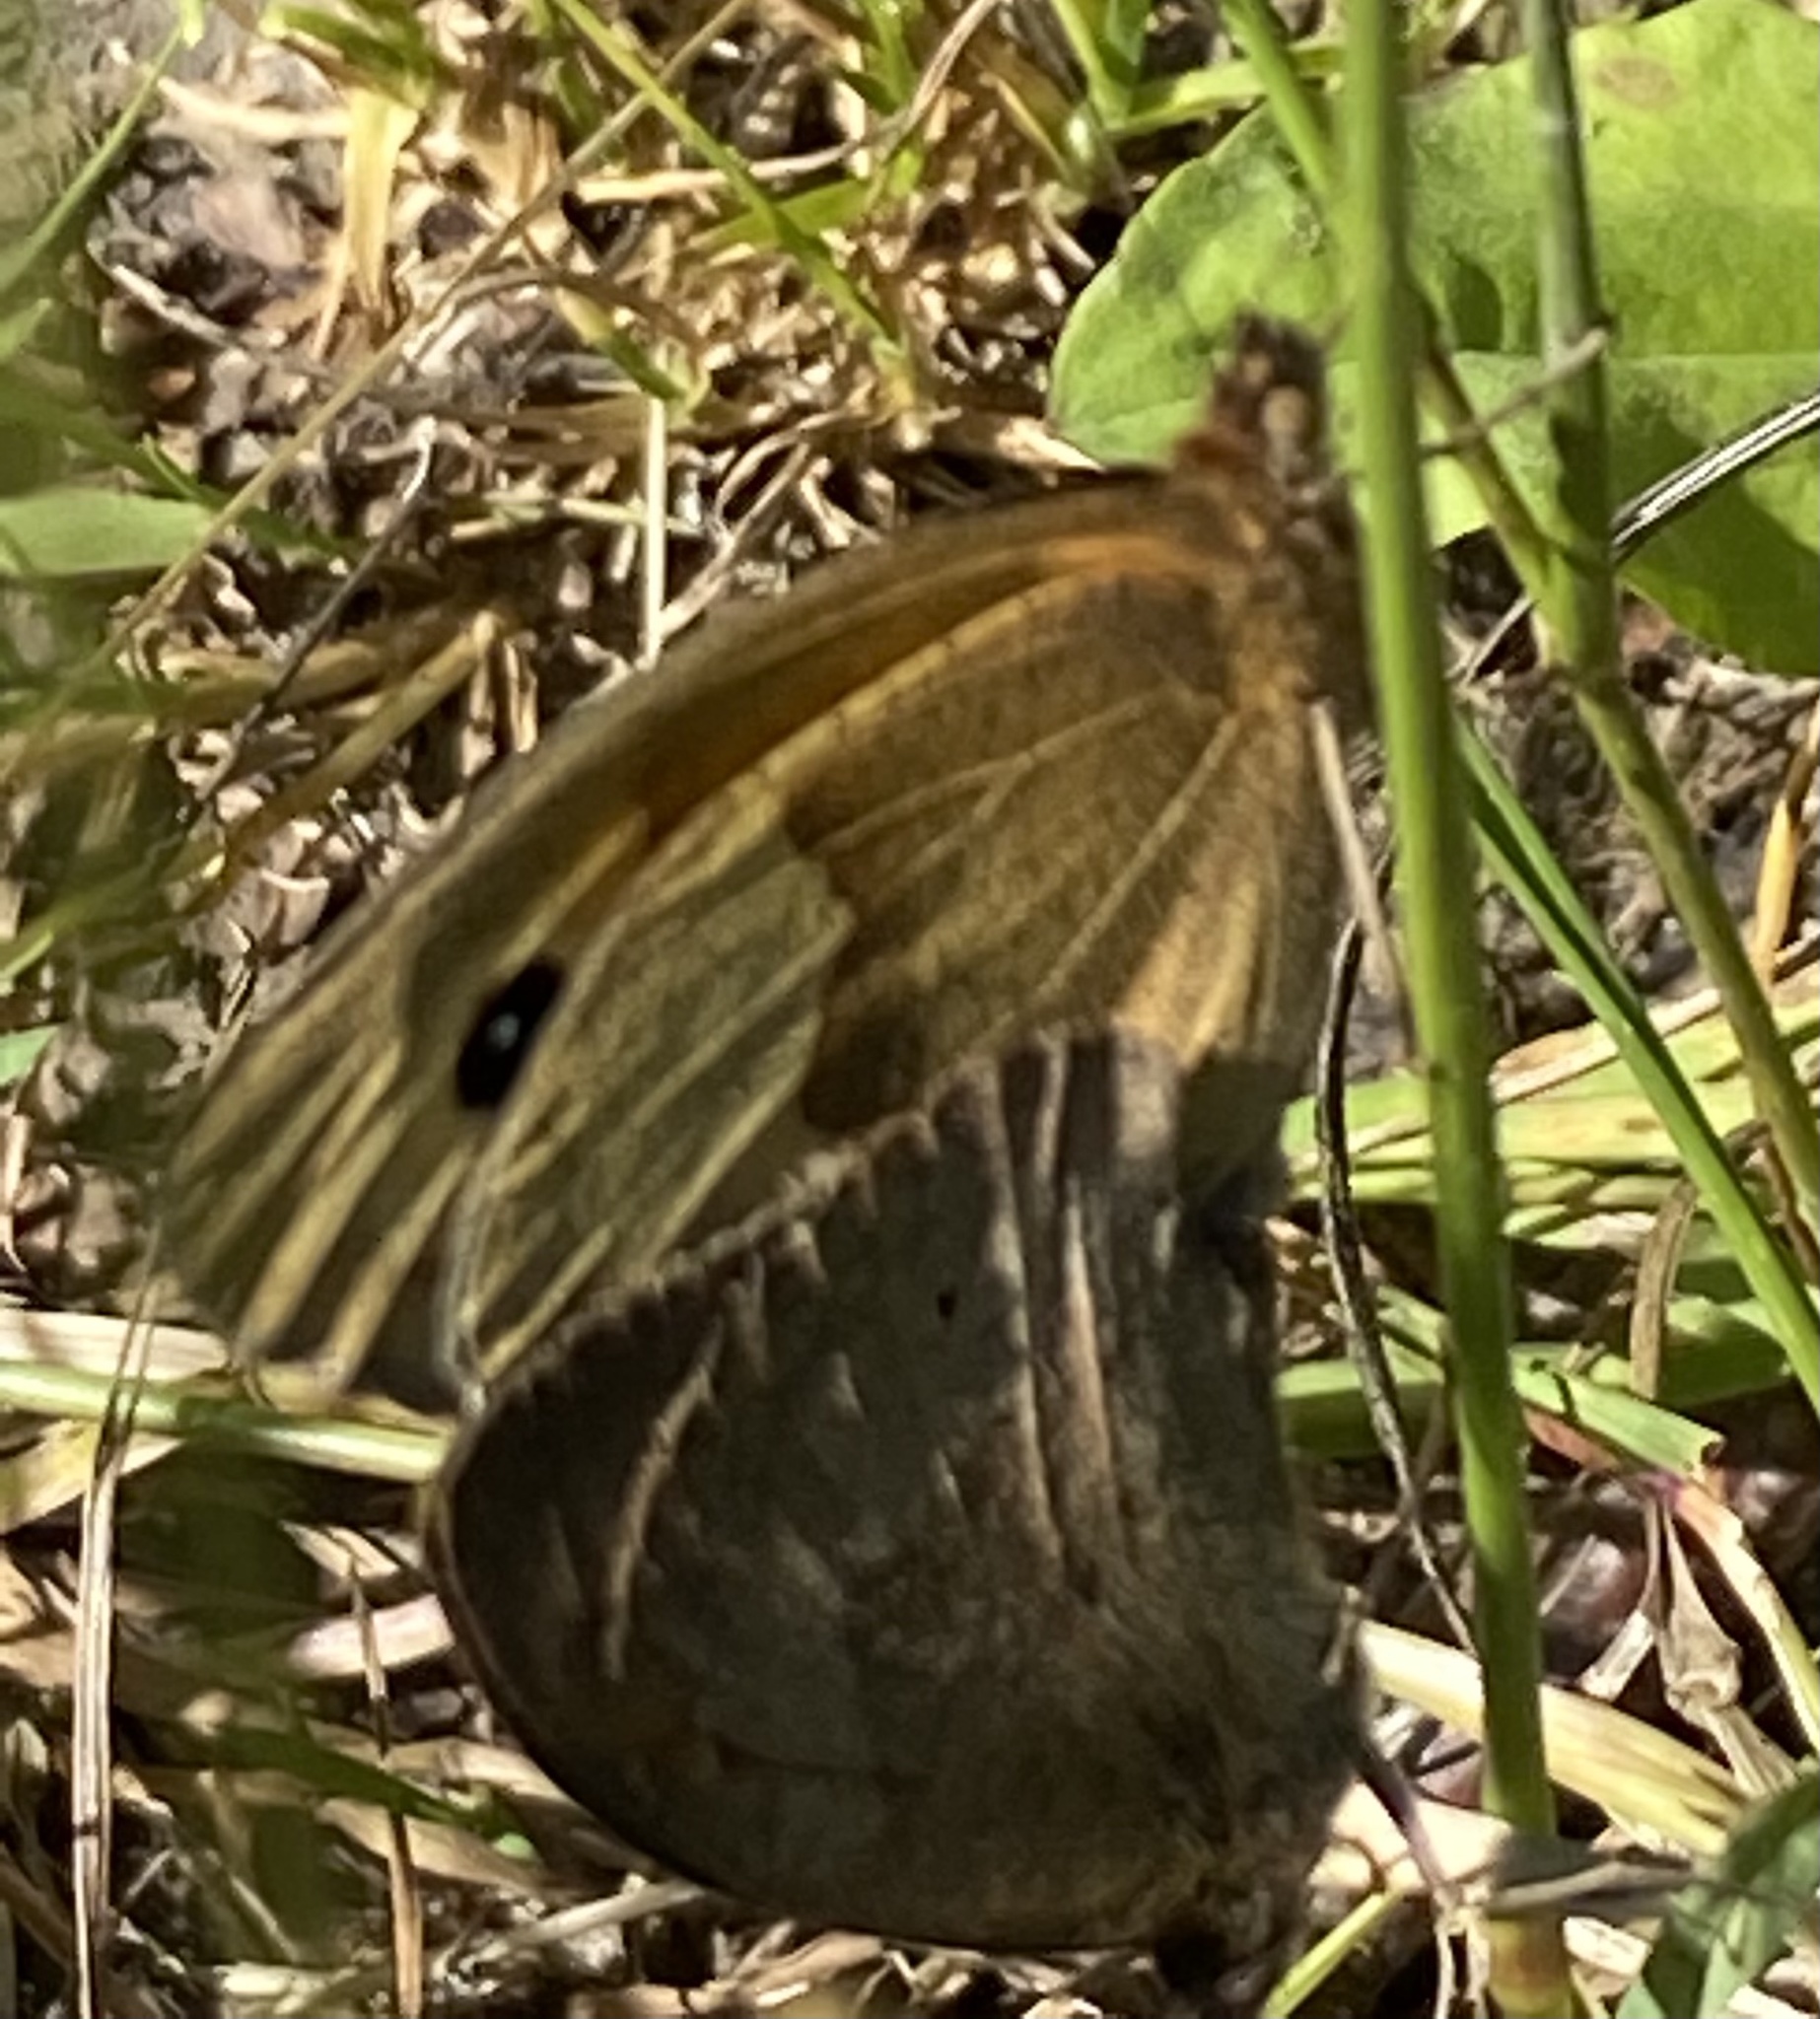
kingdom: Animalia
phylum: Arthropoda
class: Insecta
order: Lepidoptera
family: Nymphalidae
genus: Maniola
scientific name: Maniola jurtina
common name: Meadow brown
